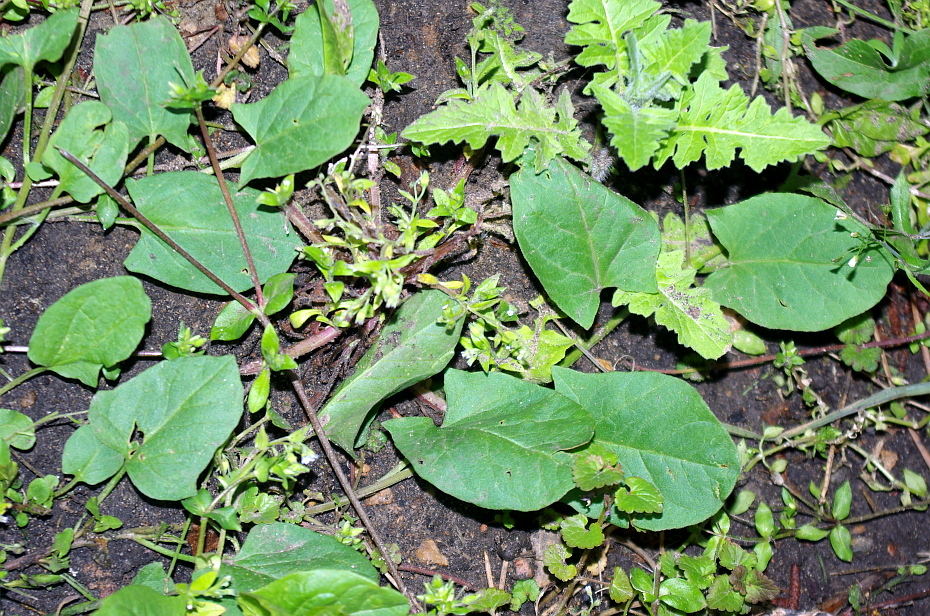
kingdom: Plantae
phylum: Tracheophyta
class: Magnoliopsida
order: Solanales
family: Convolvulaceae
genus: Convolvulus
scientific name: Convolvulus arvensis
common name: Field bindweed
